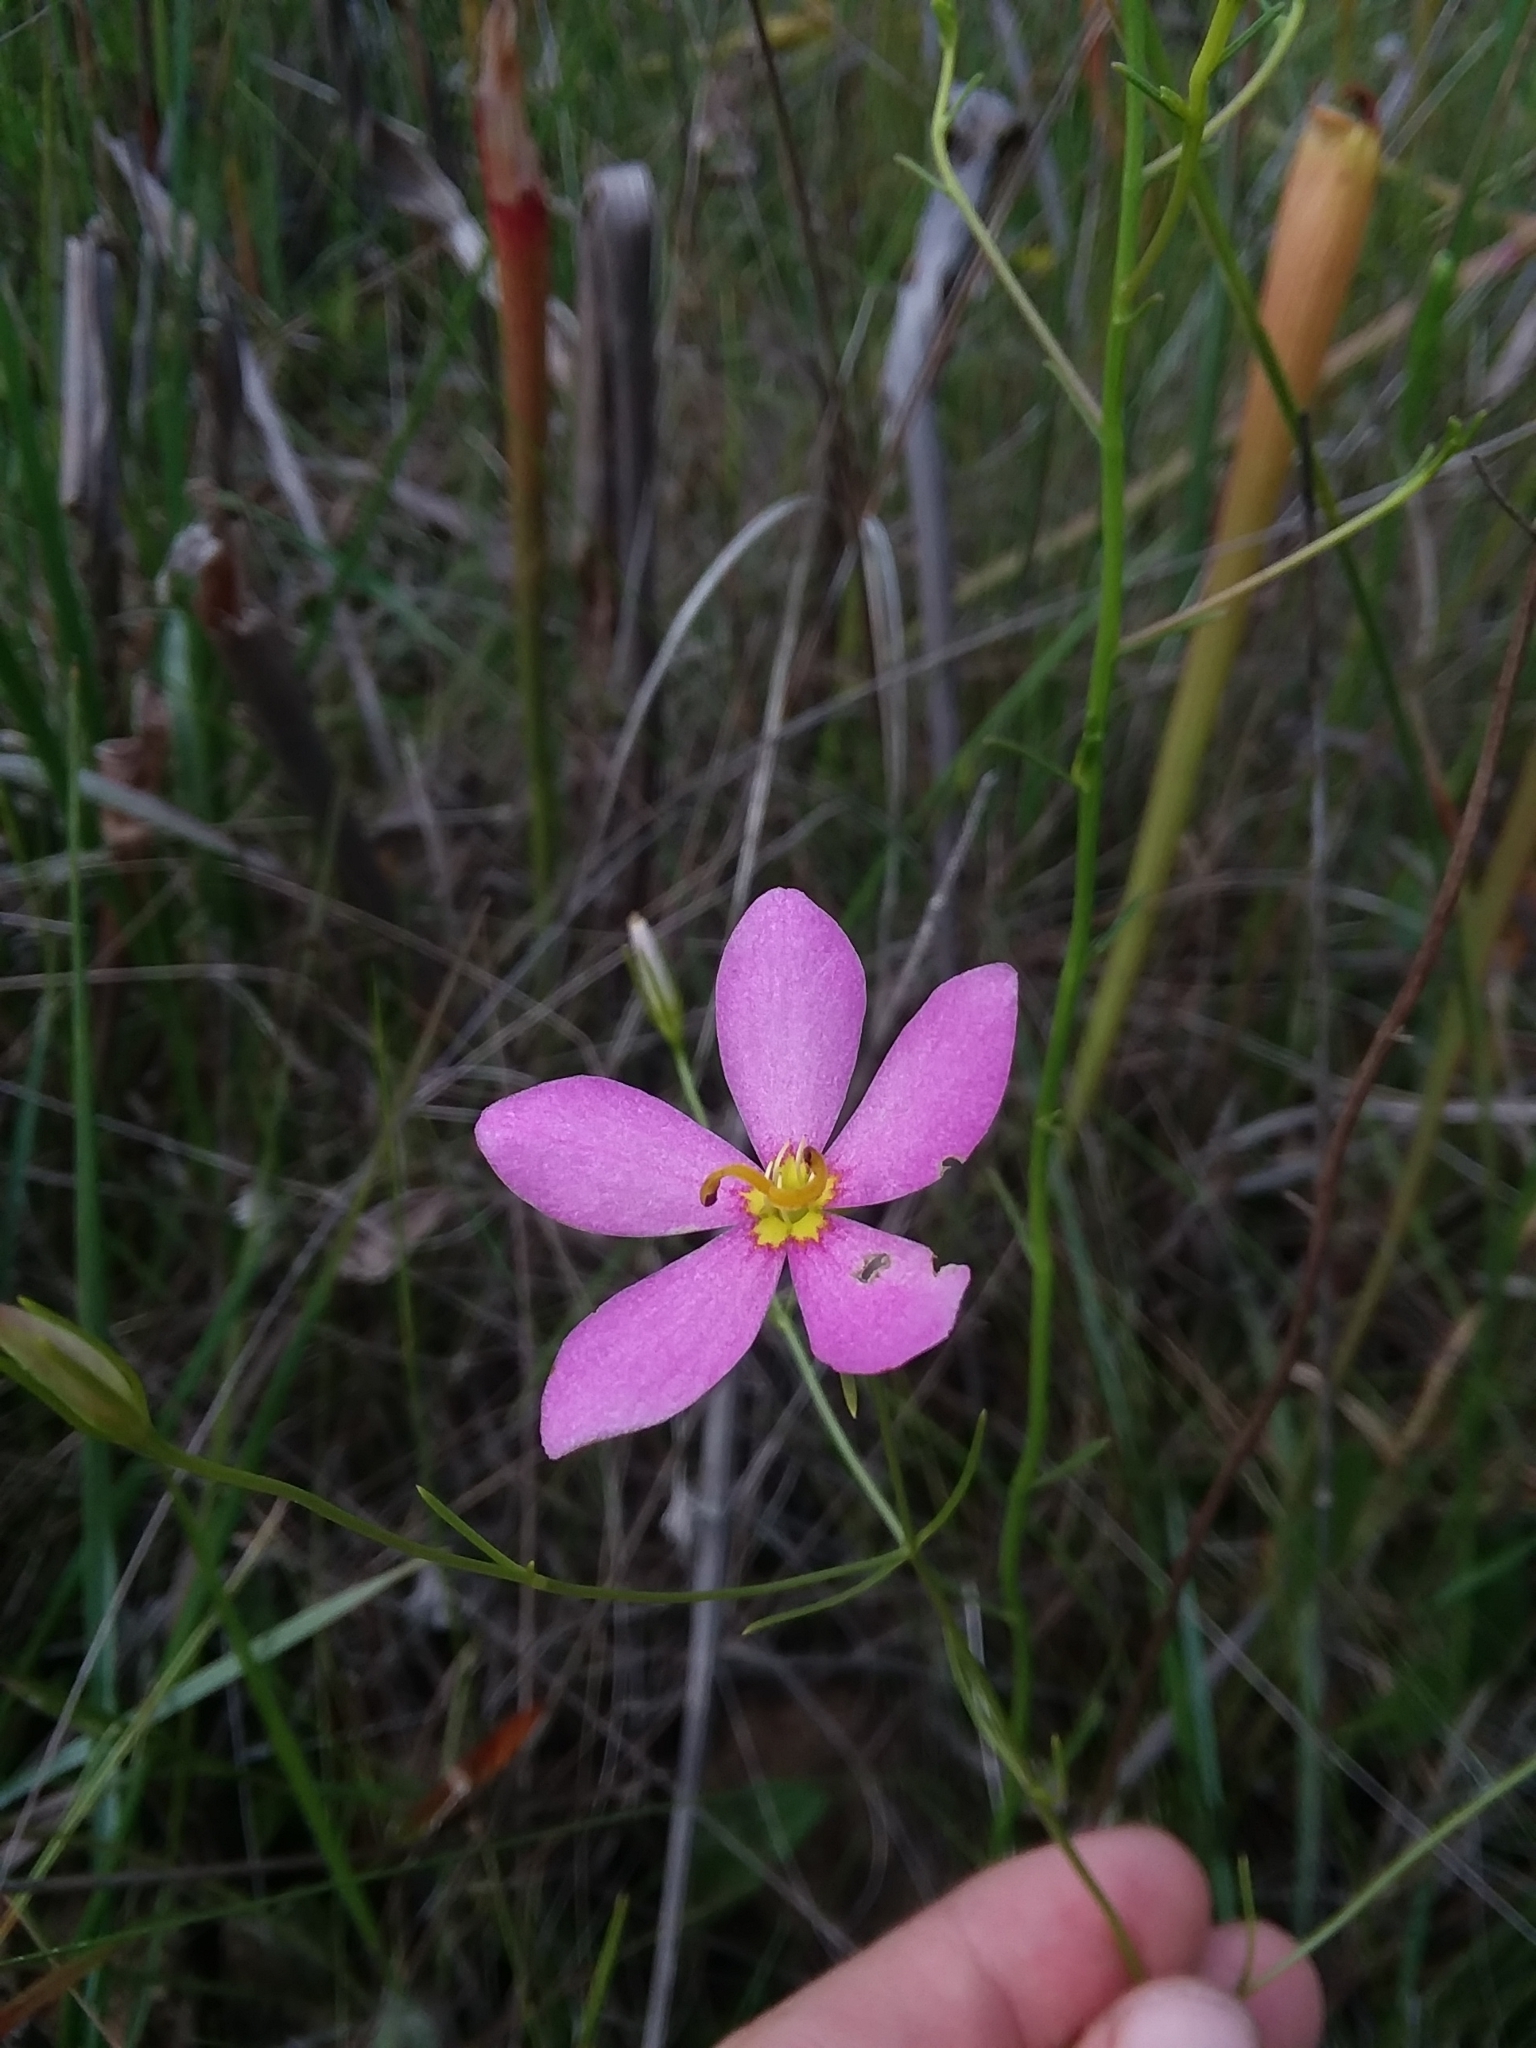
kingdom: Plantae
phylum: Tracheophyta
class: Magnoliopsida
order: Gentianales
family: Gentianaceae
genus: Sabatia
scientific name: Sabatia campanulata
